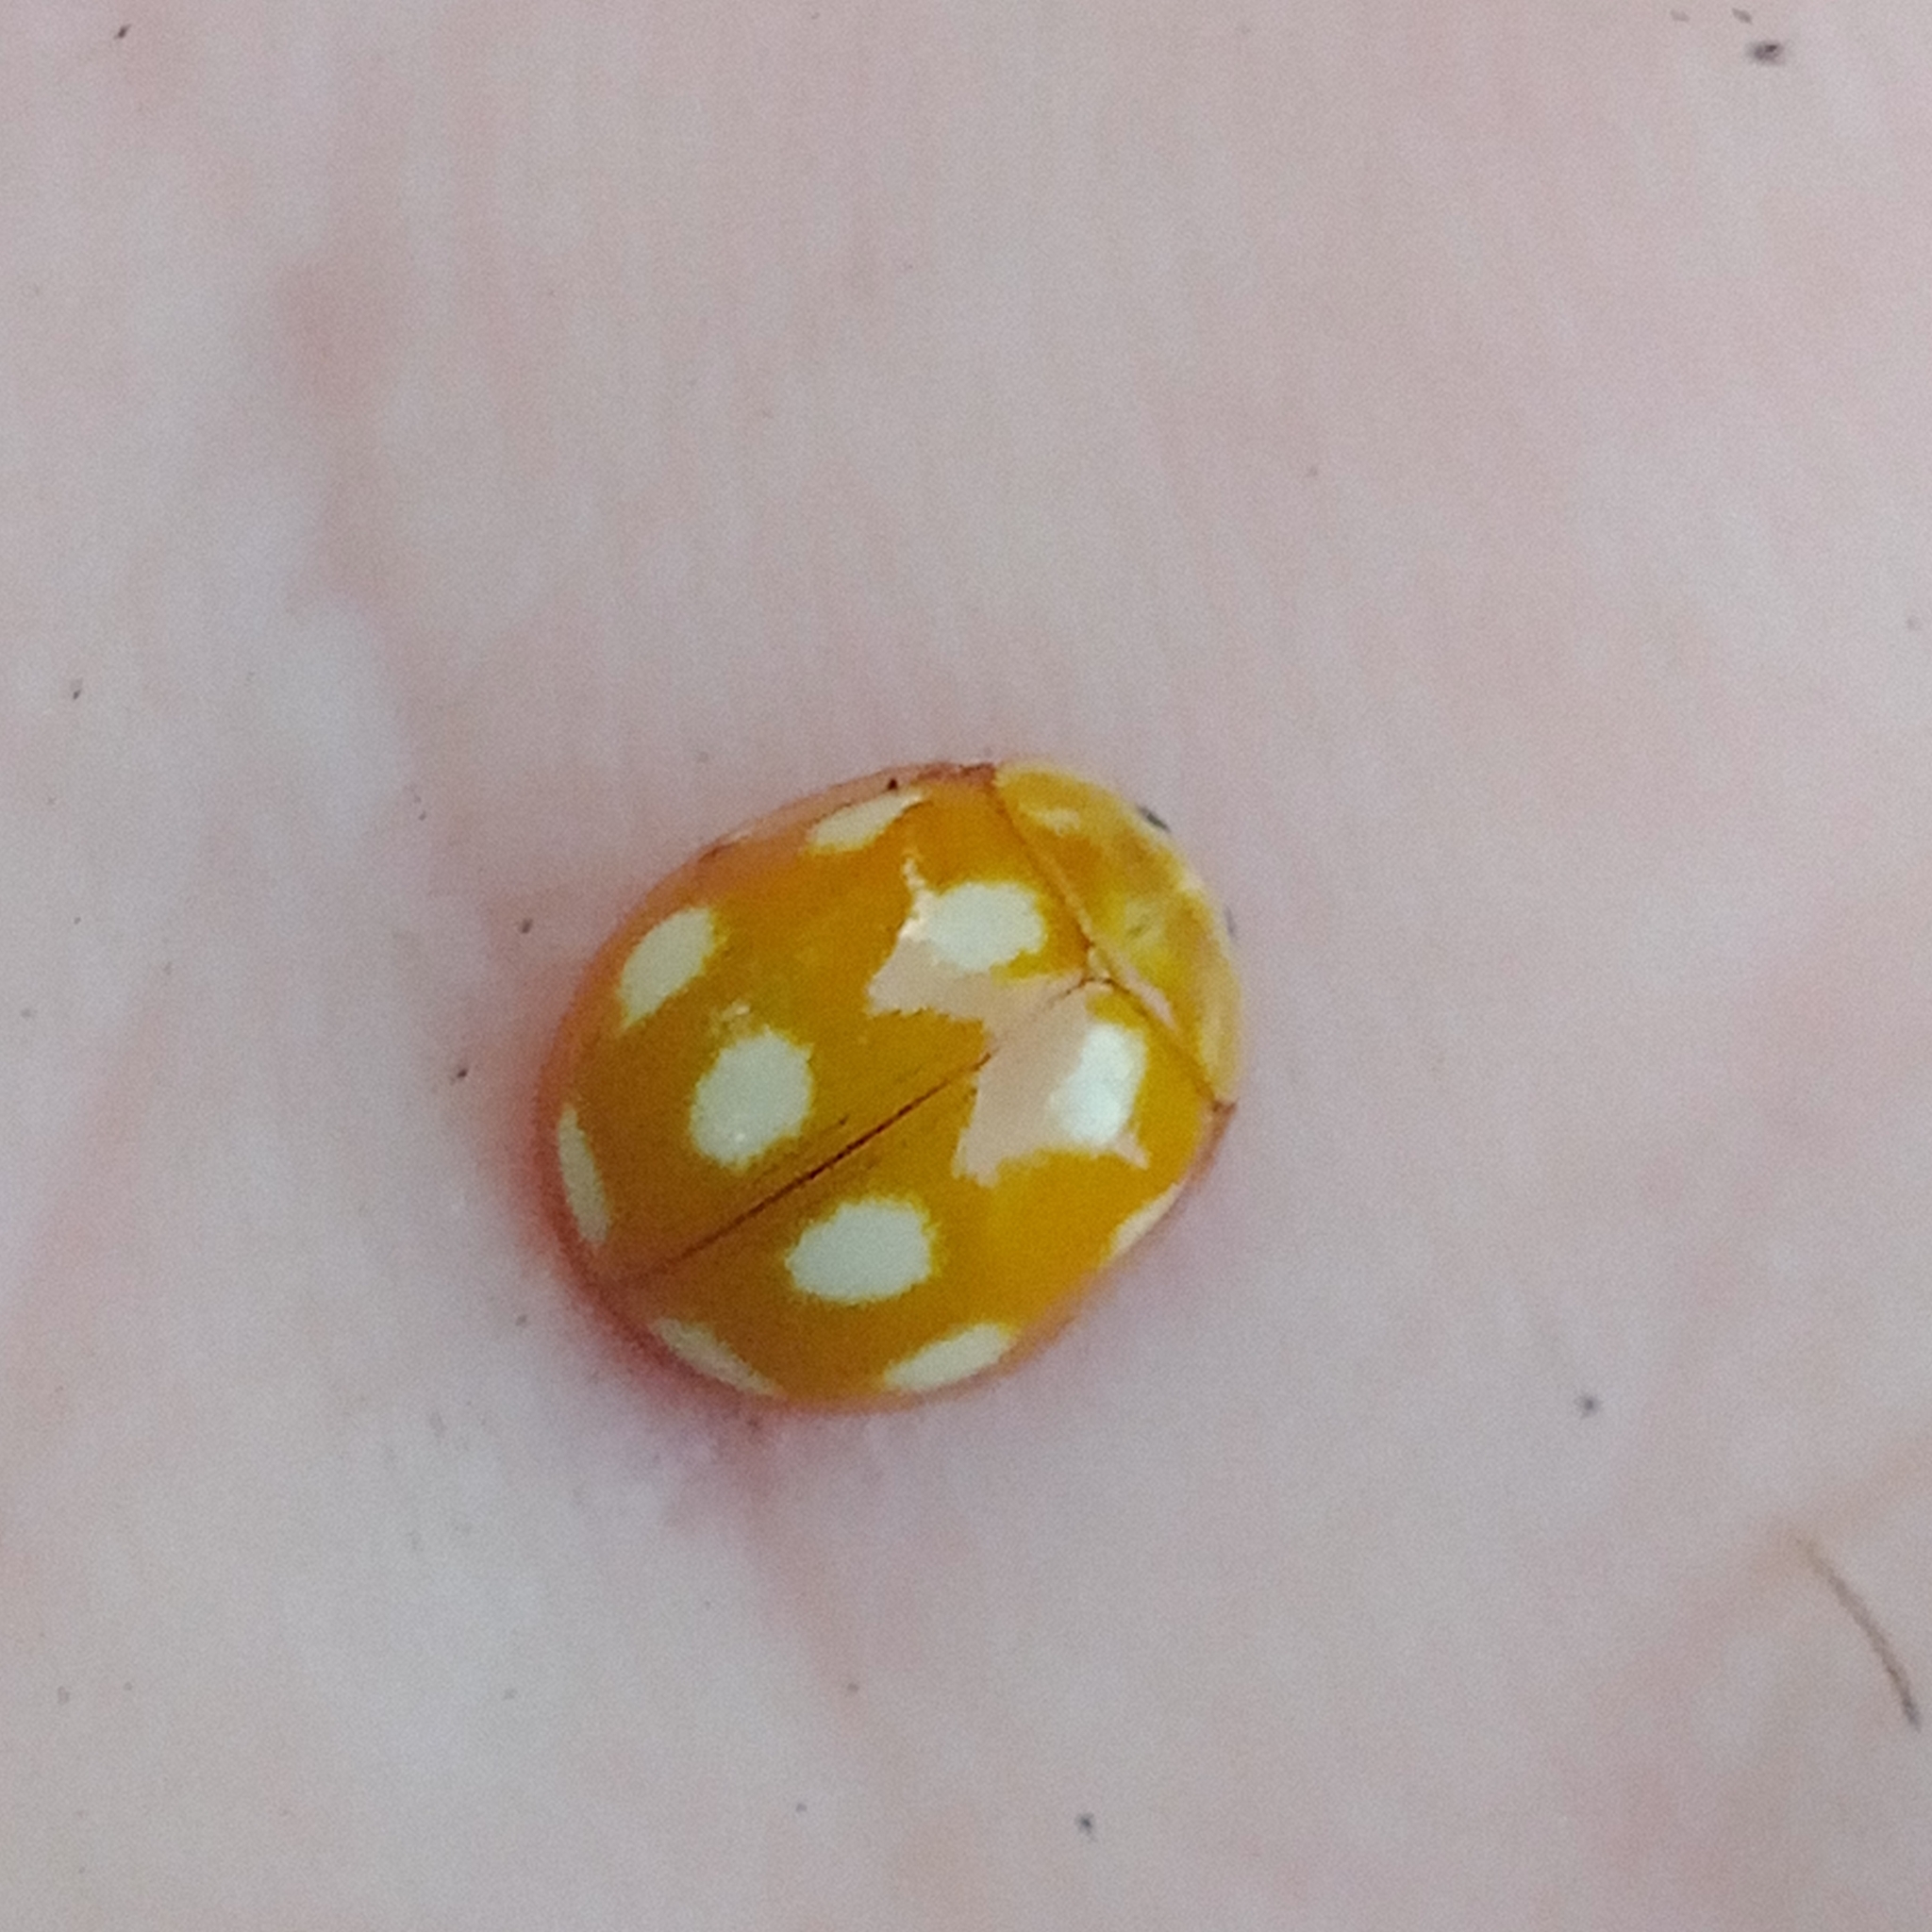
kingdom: Animalia
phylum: Arthropoda
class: Insecta
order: Coleoptera
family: Coccinellidae
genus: Calvia
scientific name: Calvia decemguttata
